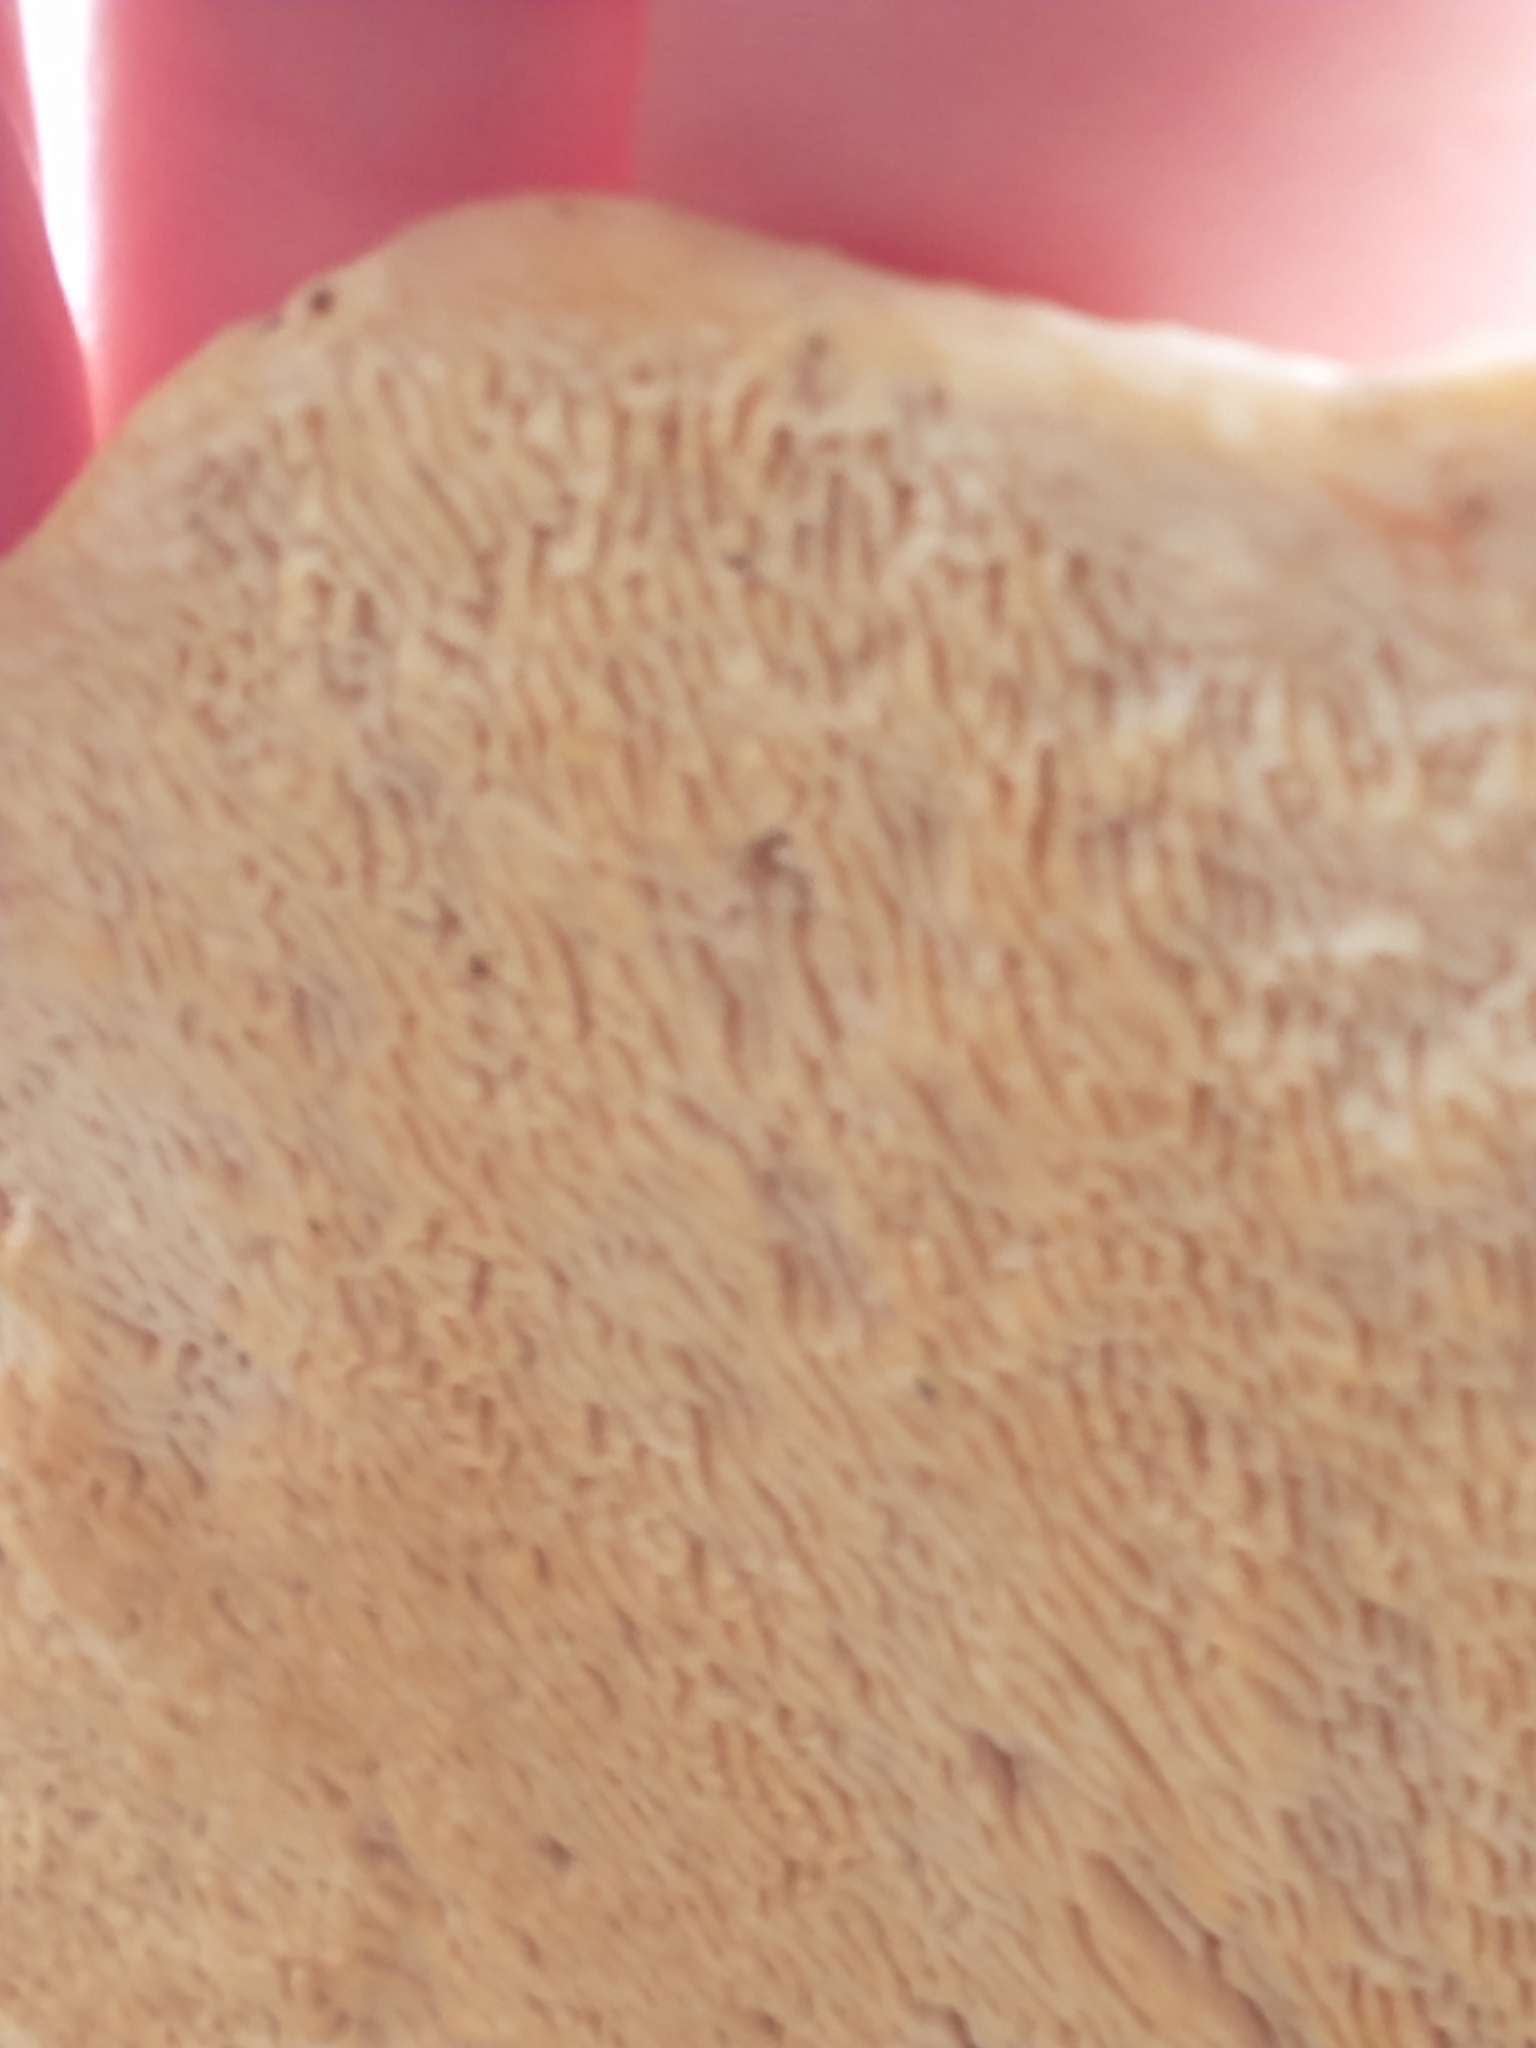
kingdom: Fungi
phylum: Basidiomycota
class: Agaricomycetes
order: Polyporales
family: Polyporaceae
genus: Trametes
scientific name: Trametes gibbosa
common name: Lumpy bracket
